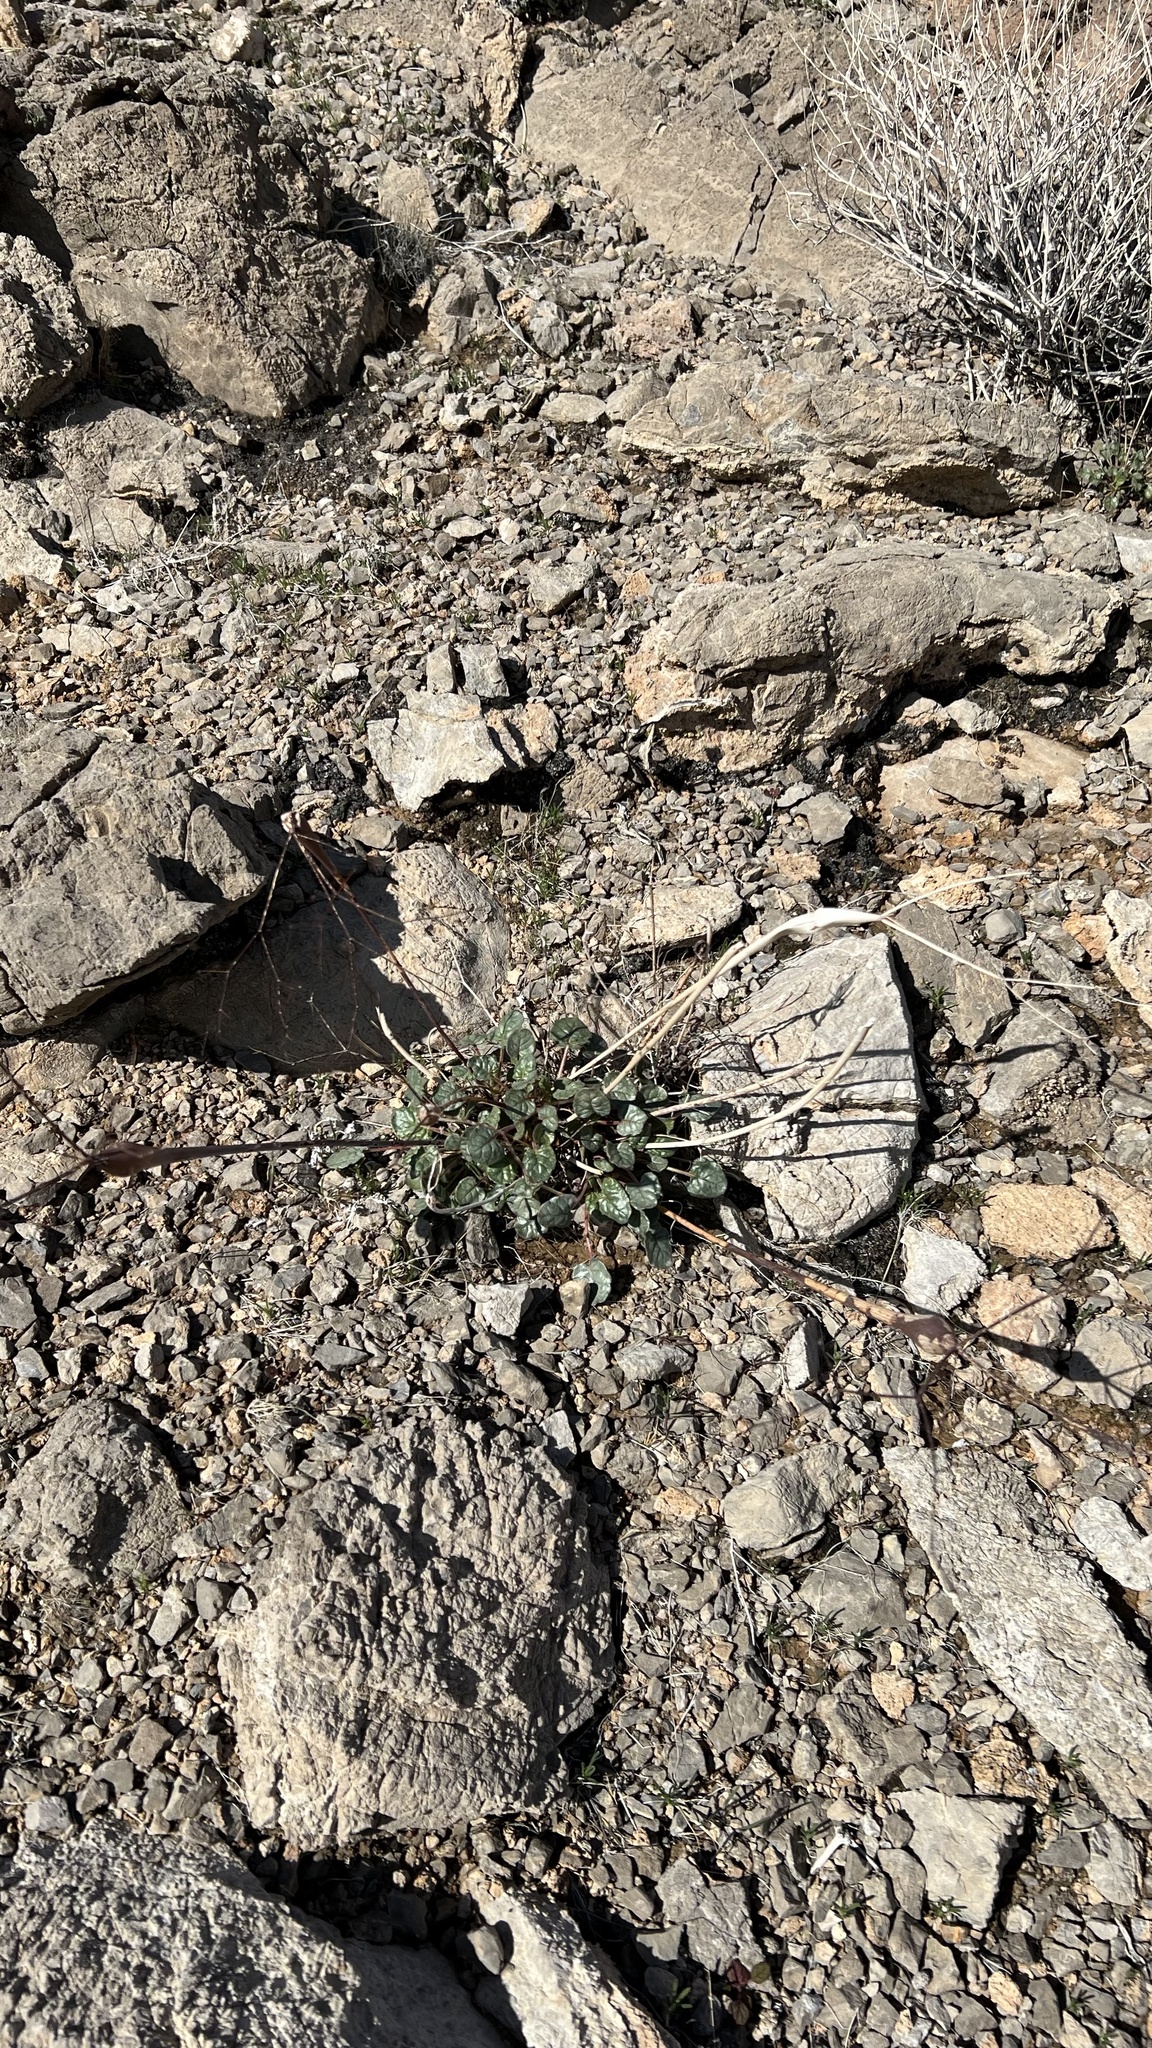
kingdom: Plantae
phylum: Tracheophyta
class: Magnoliopsida
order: Caryophyllales
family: Polygonaceae
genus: Eriogonum
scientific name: Eriogonum inflatum
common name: Desert trumpet
